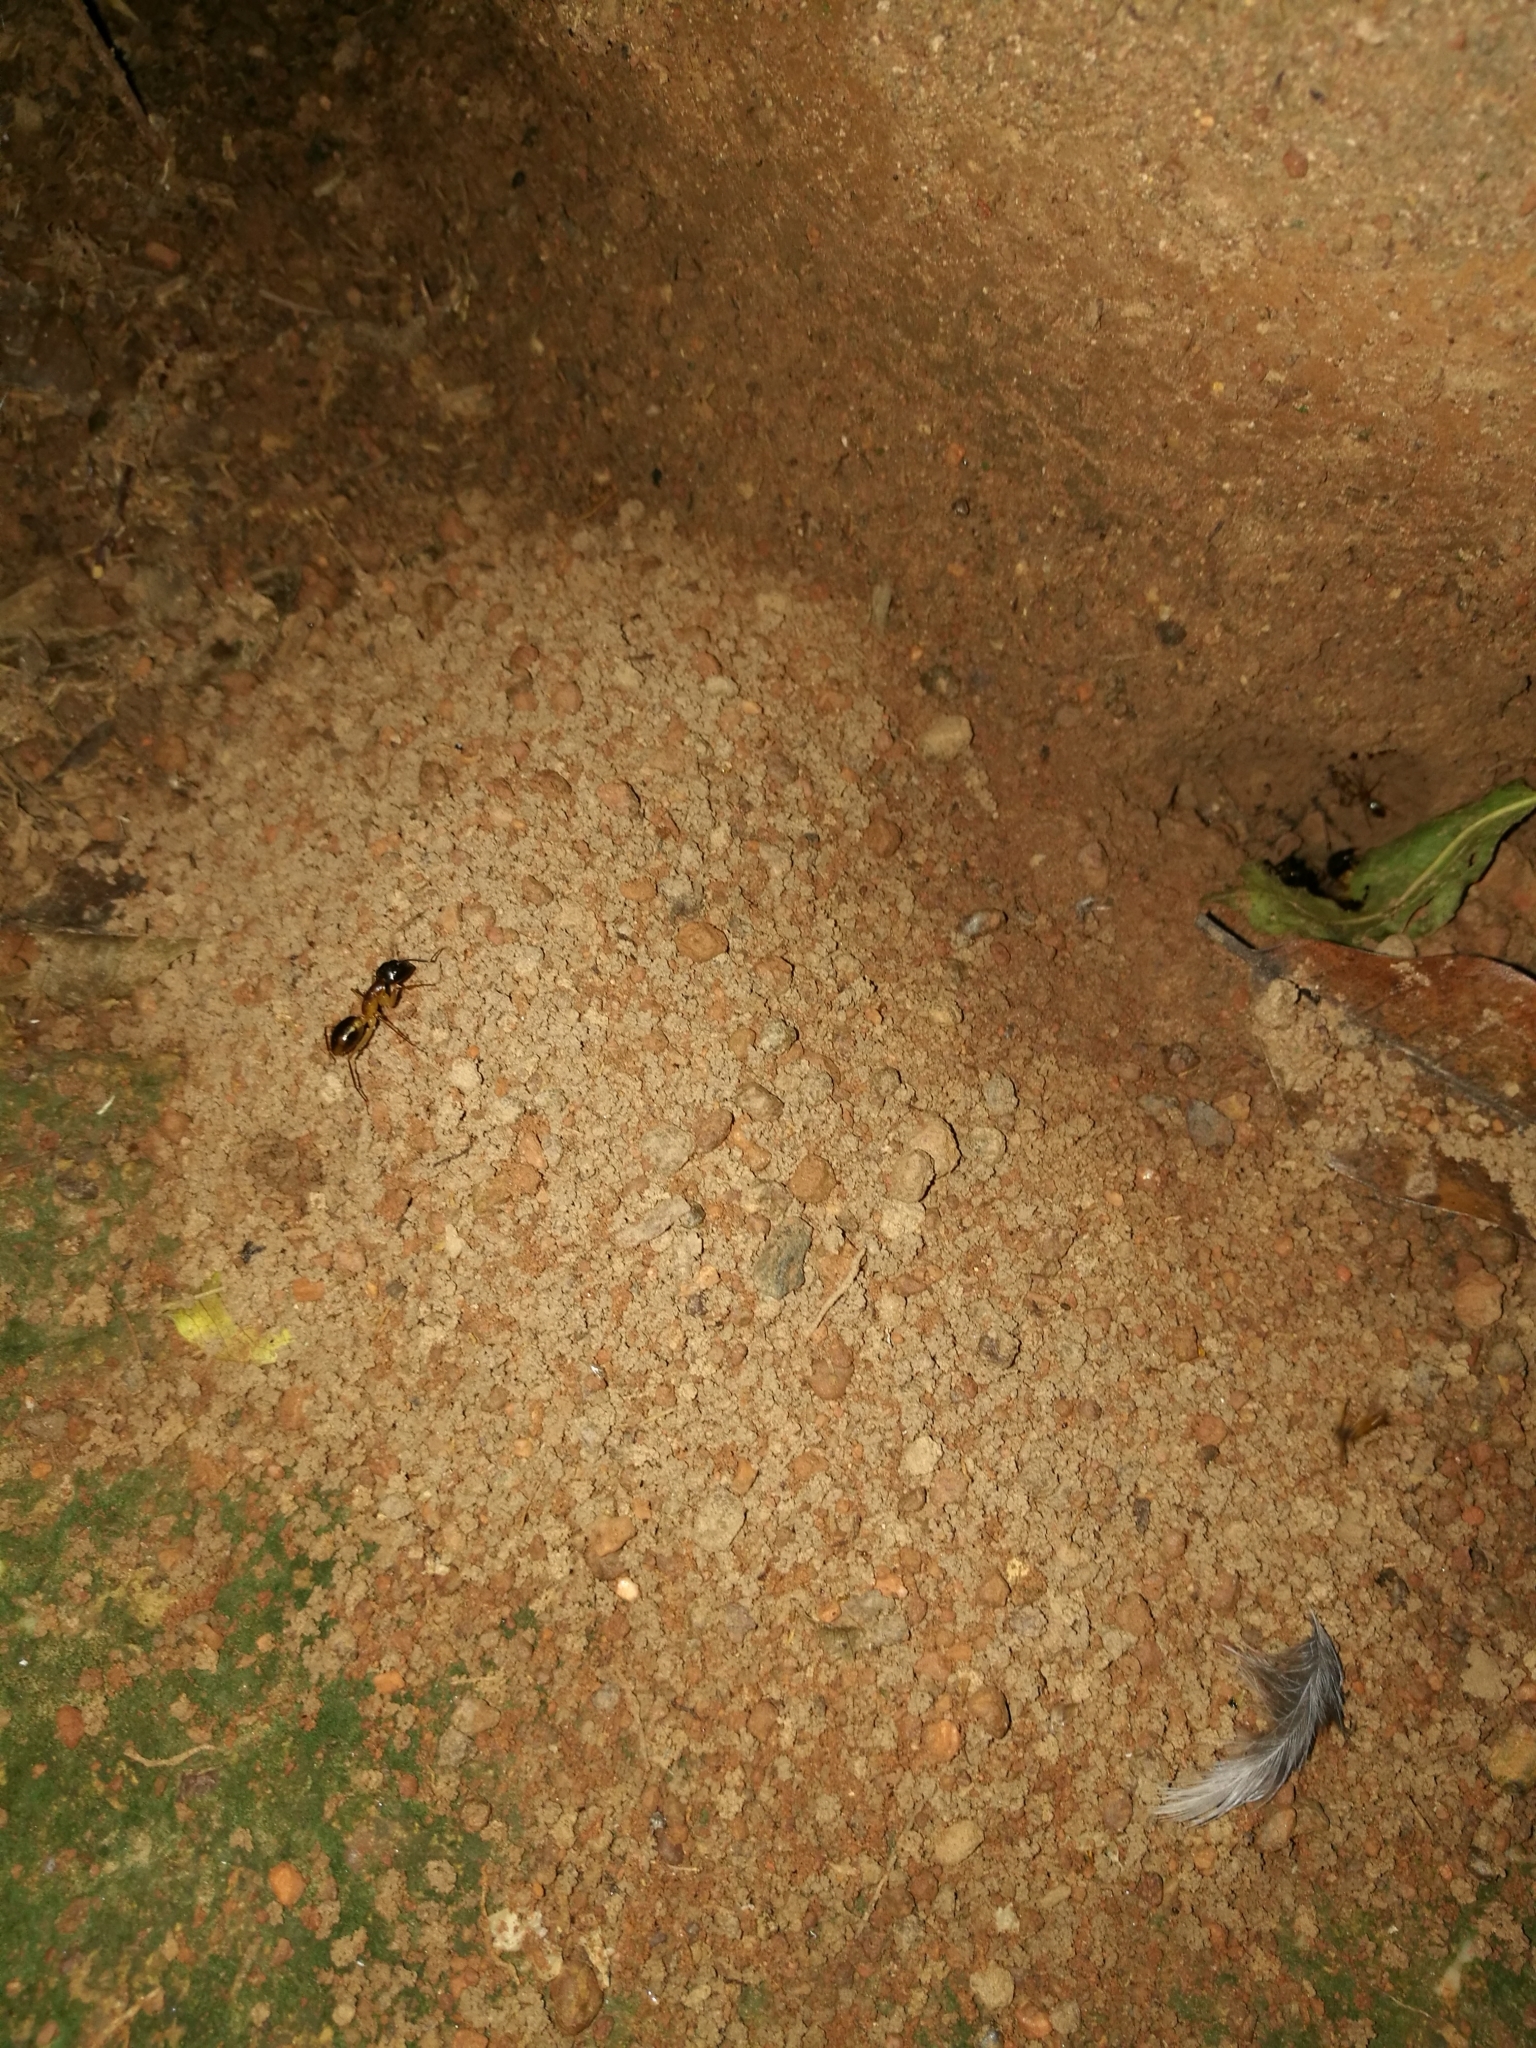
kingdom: Animalia
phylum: Arthropoda
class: Insecta
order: Hymenoptera
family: Formicidae
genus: Camponotus
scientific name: Camponotus maculatus
